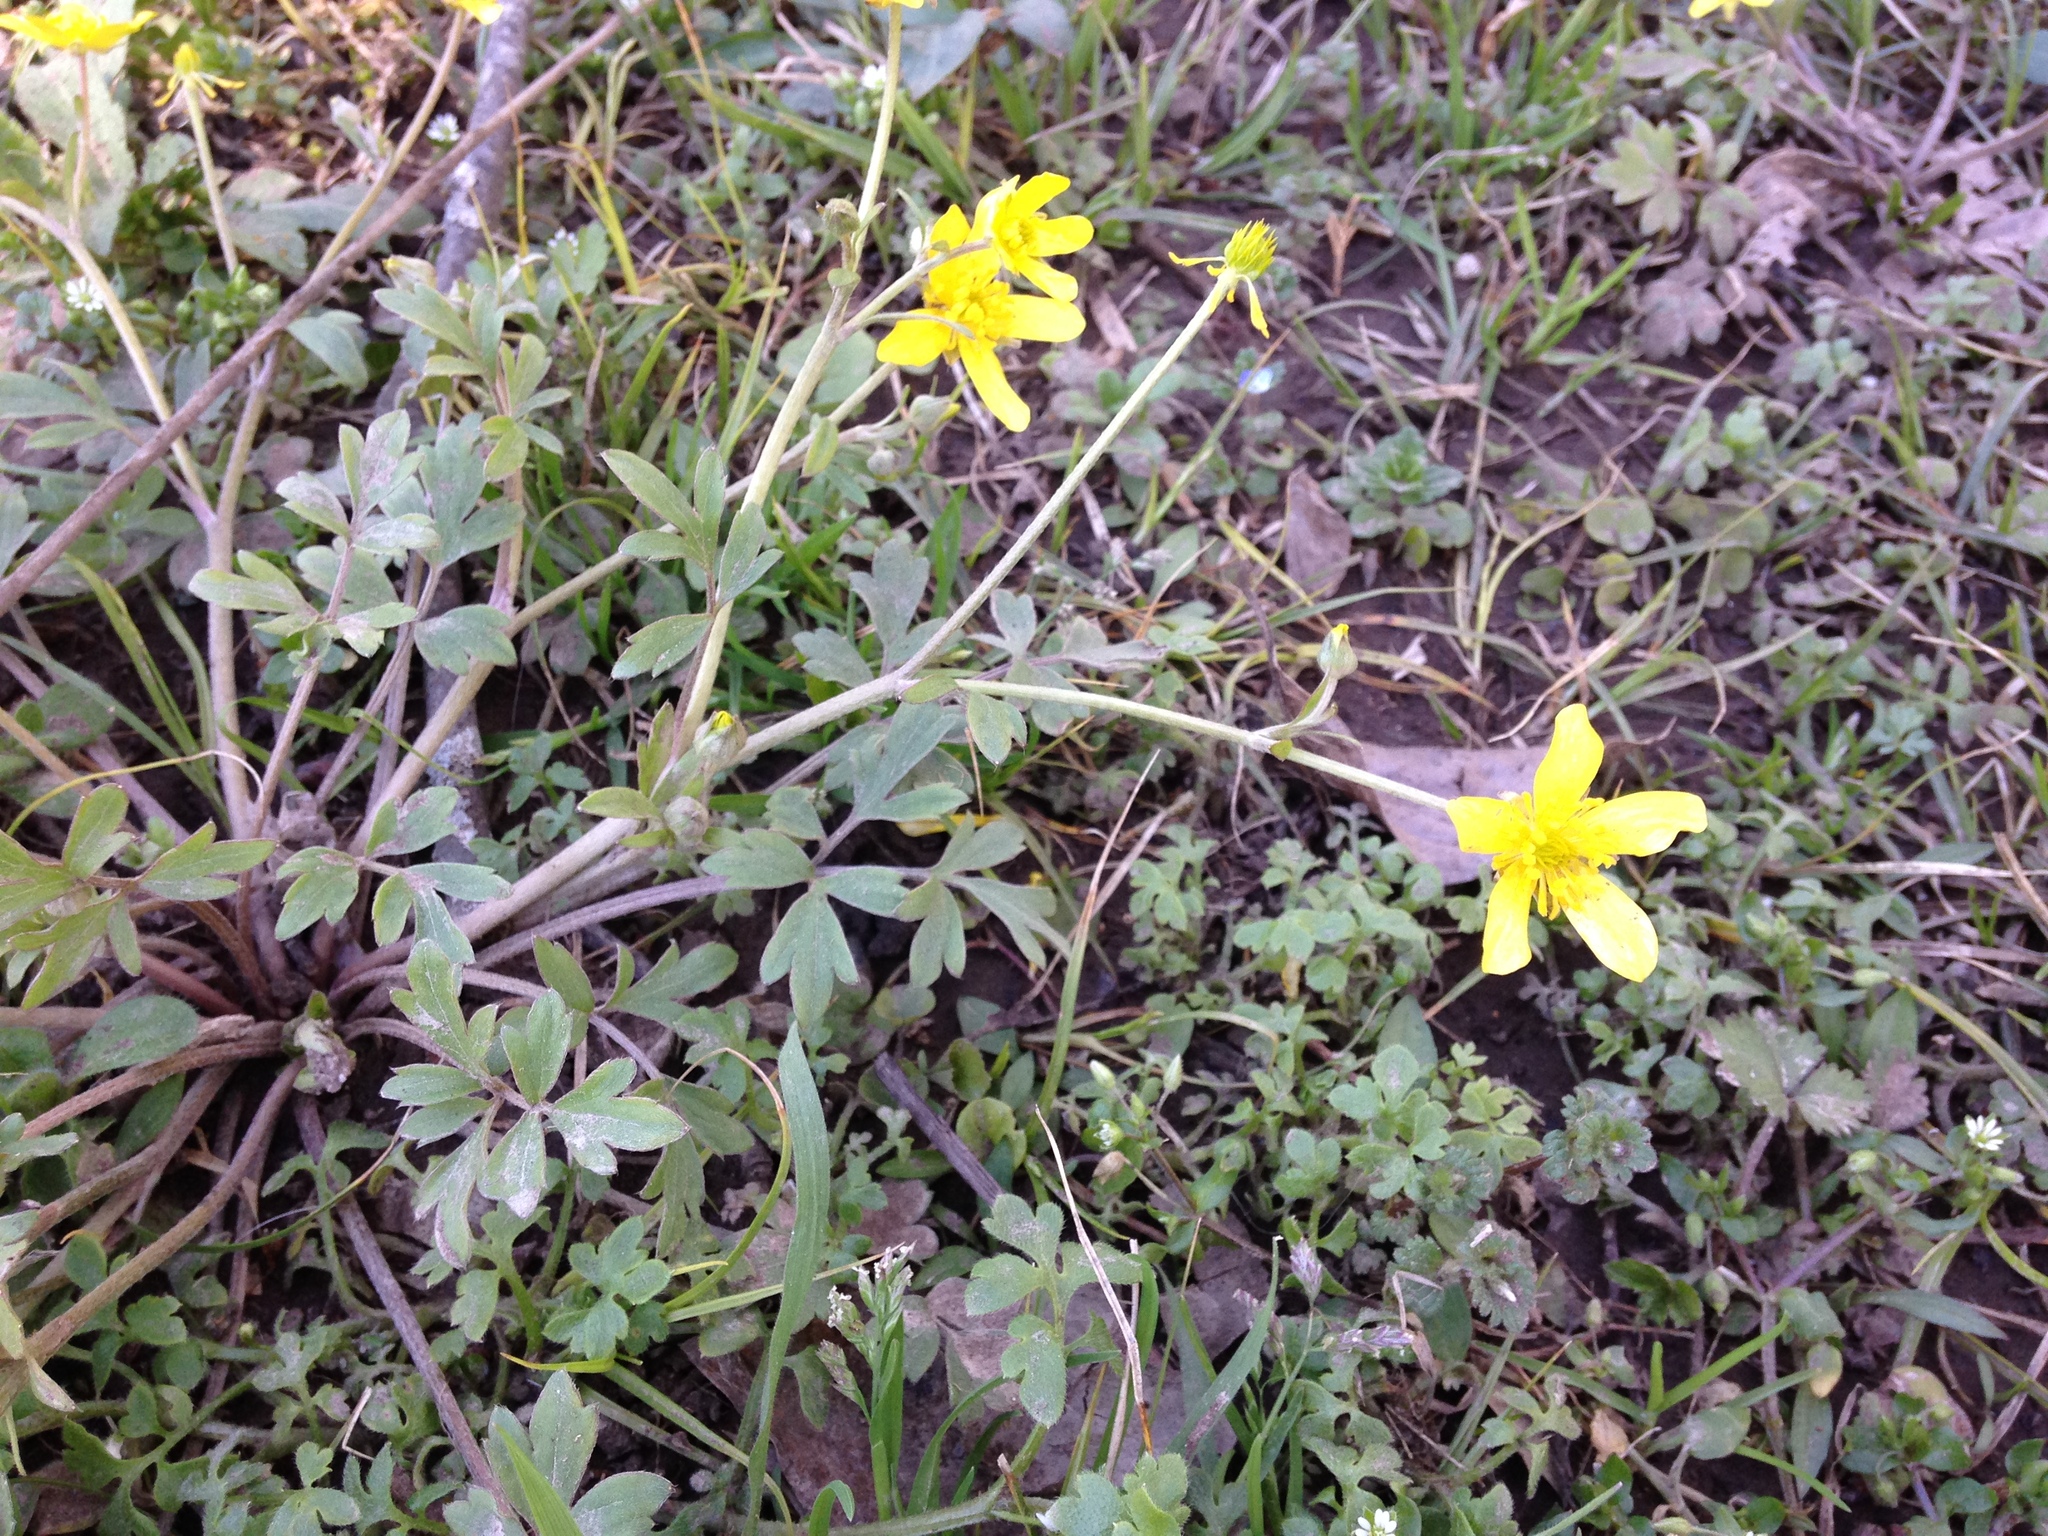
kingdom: Plantae
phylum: Tracheophyta
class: Magnoliopsida
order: Ranunculales
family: Ranunculaceae
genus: Ranunculus
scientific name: Ranunculus fascicularis
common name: Early buttercup
